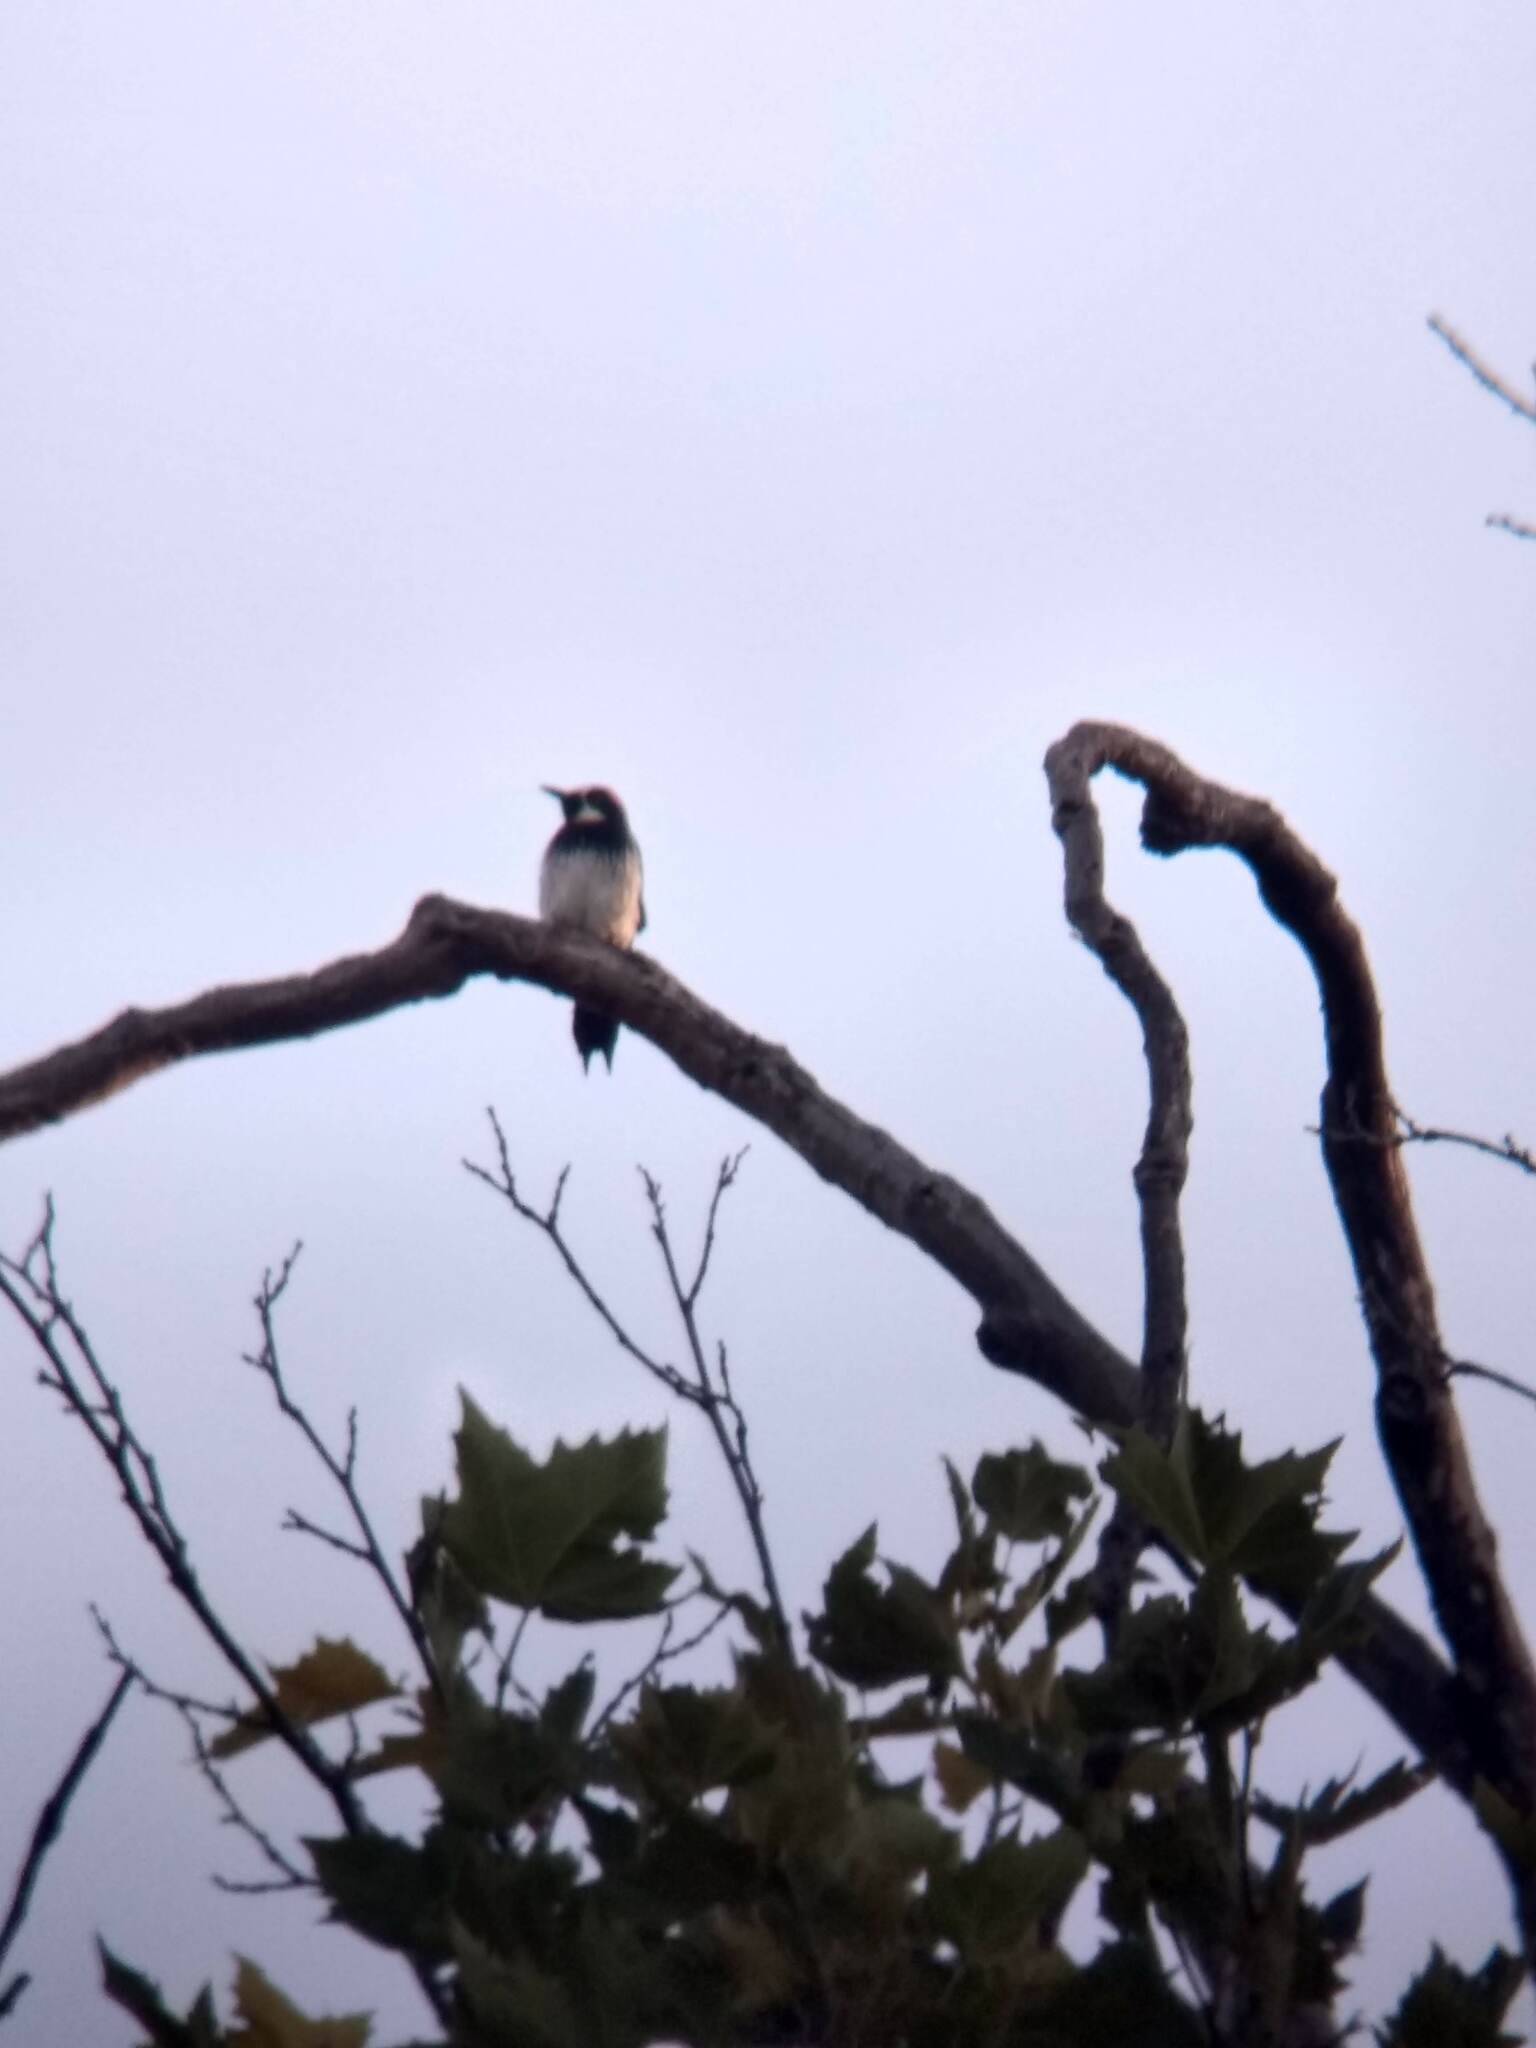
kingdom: Animalia
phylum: Chordata
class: Aves
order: Piciformes
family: Picidae
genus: Melanerpes
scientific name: Melanerpes formicivorus
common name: Acorn woodpecker
